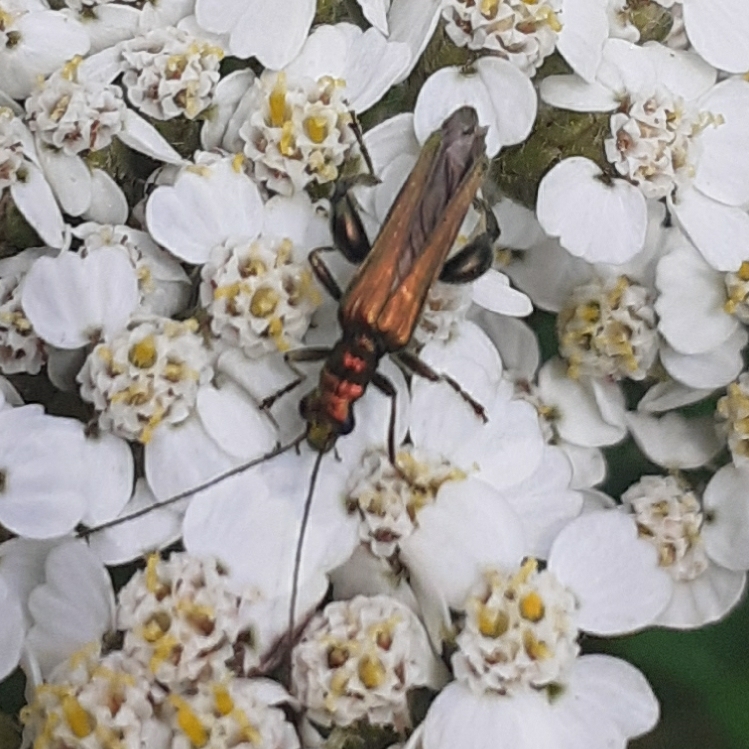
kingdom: Animalia
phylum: Arthropoda
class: Insecta
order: Coleoptera
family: Oedemeridae
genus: Oedemera
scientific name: Oedemera nobilis
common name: Swollen-thighed beetle
